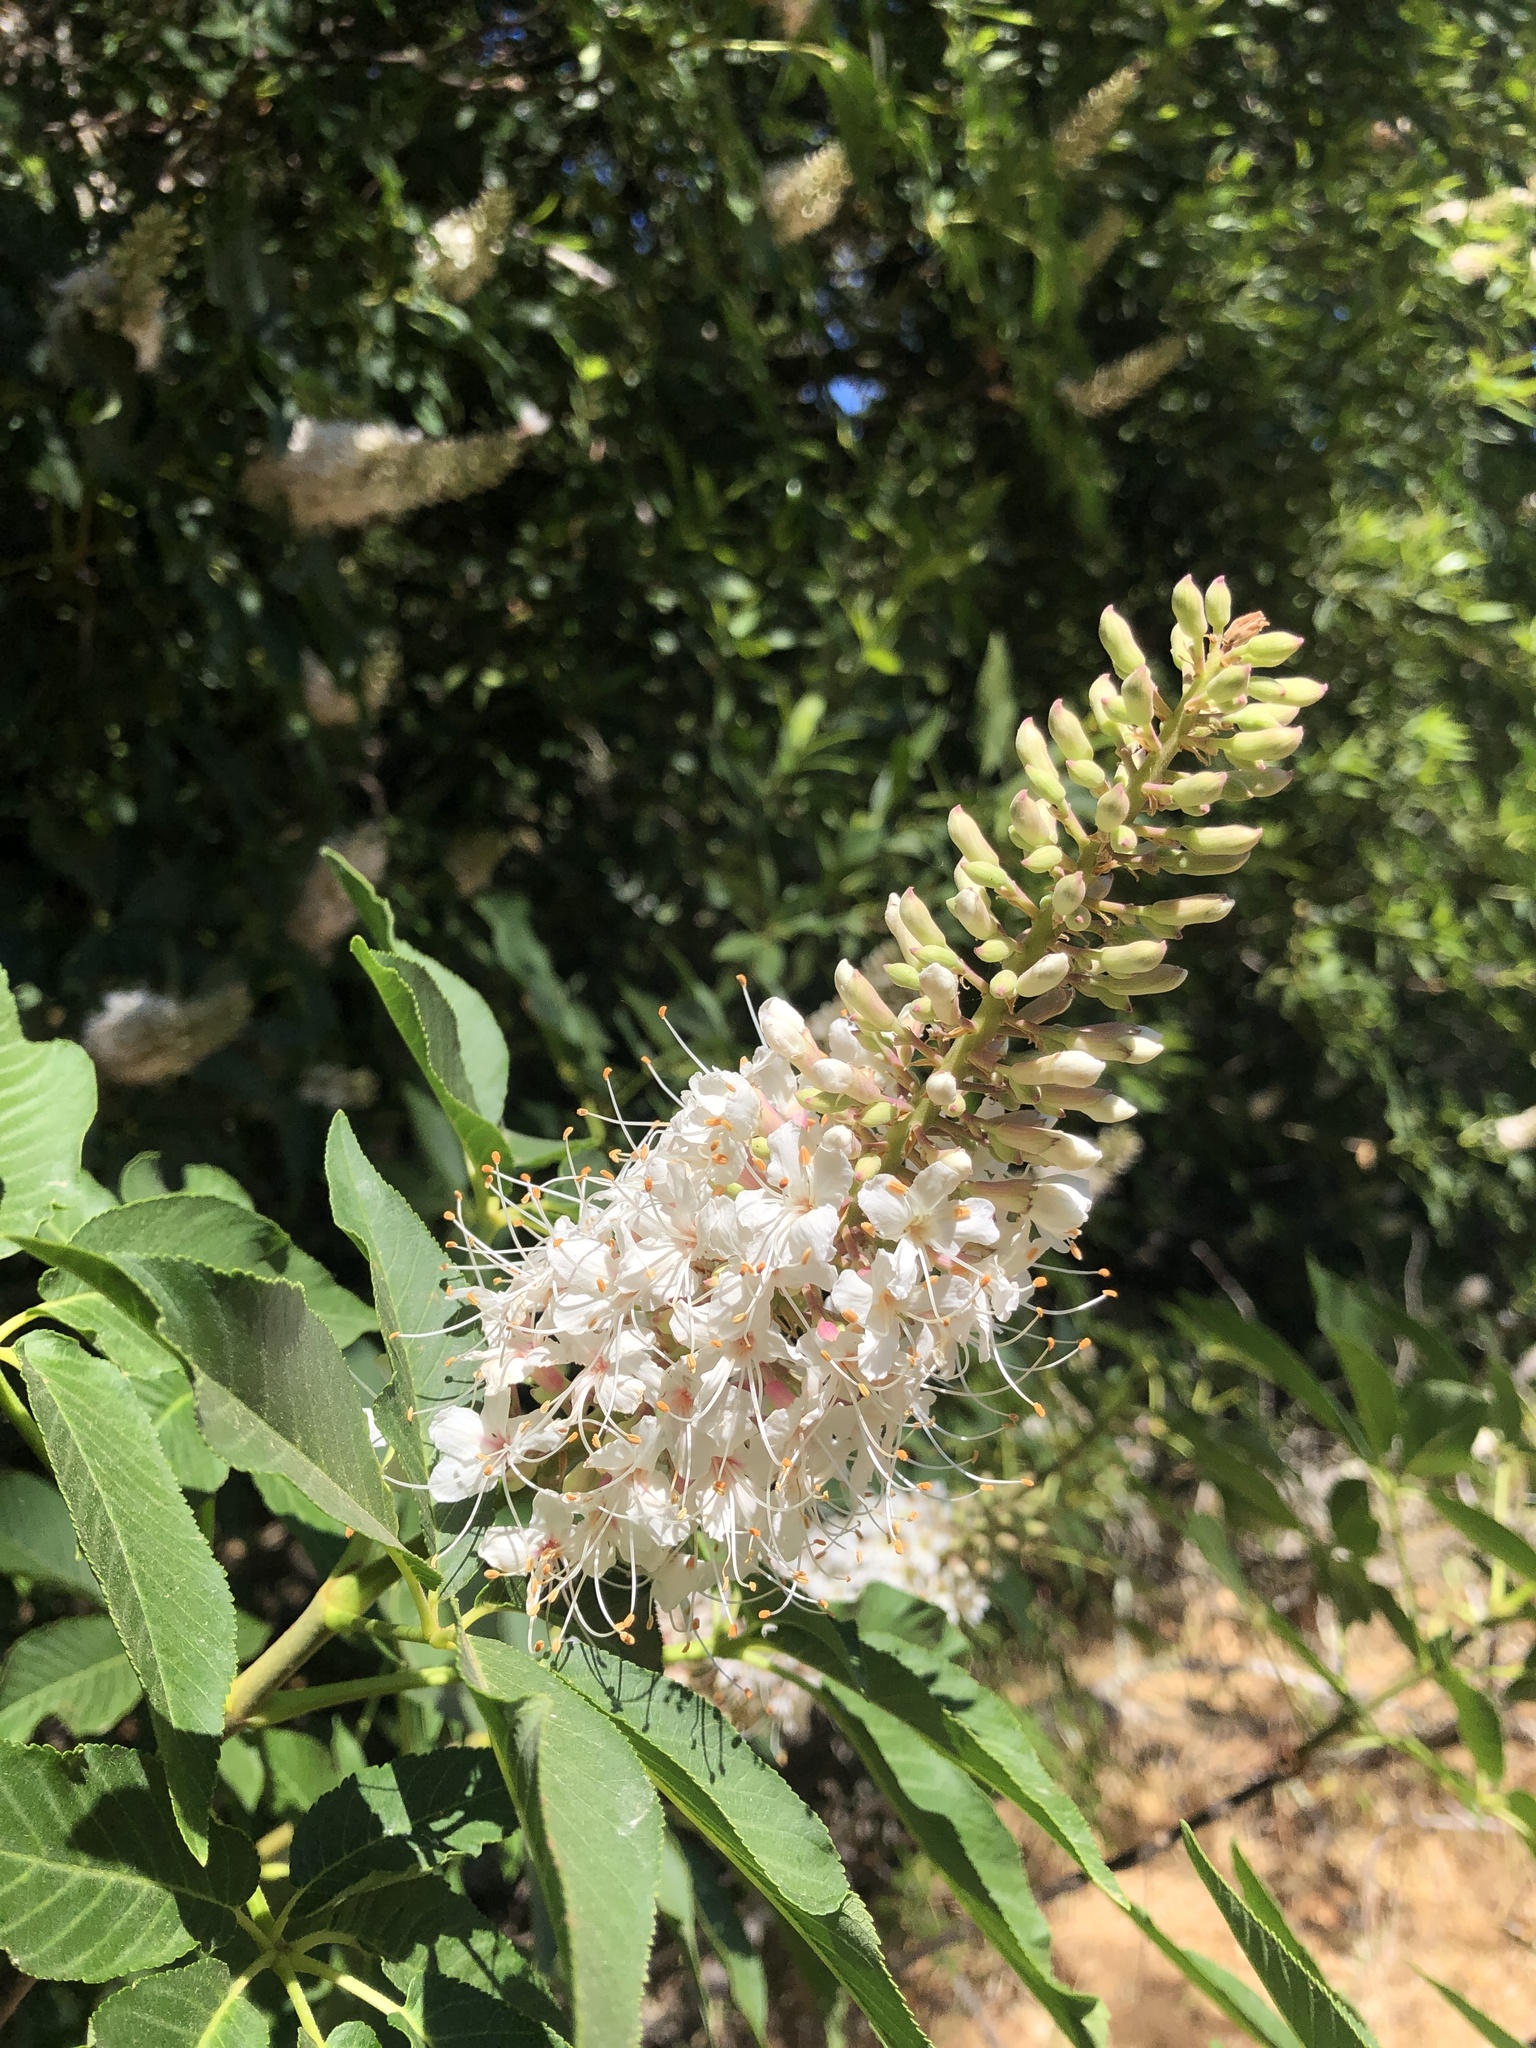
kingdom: Plantae
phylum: Tracheophyta
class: Magnoliopsida
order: Sapindales
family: Sapindaceae
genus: Aesculus
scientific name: Aesculus californica
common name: California buckeye
